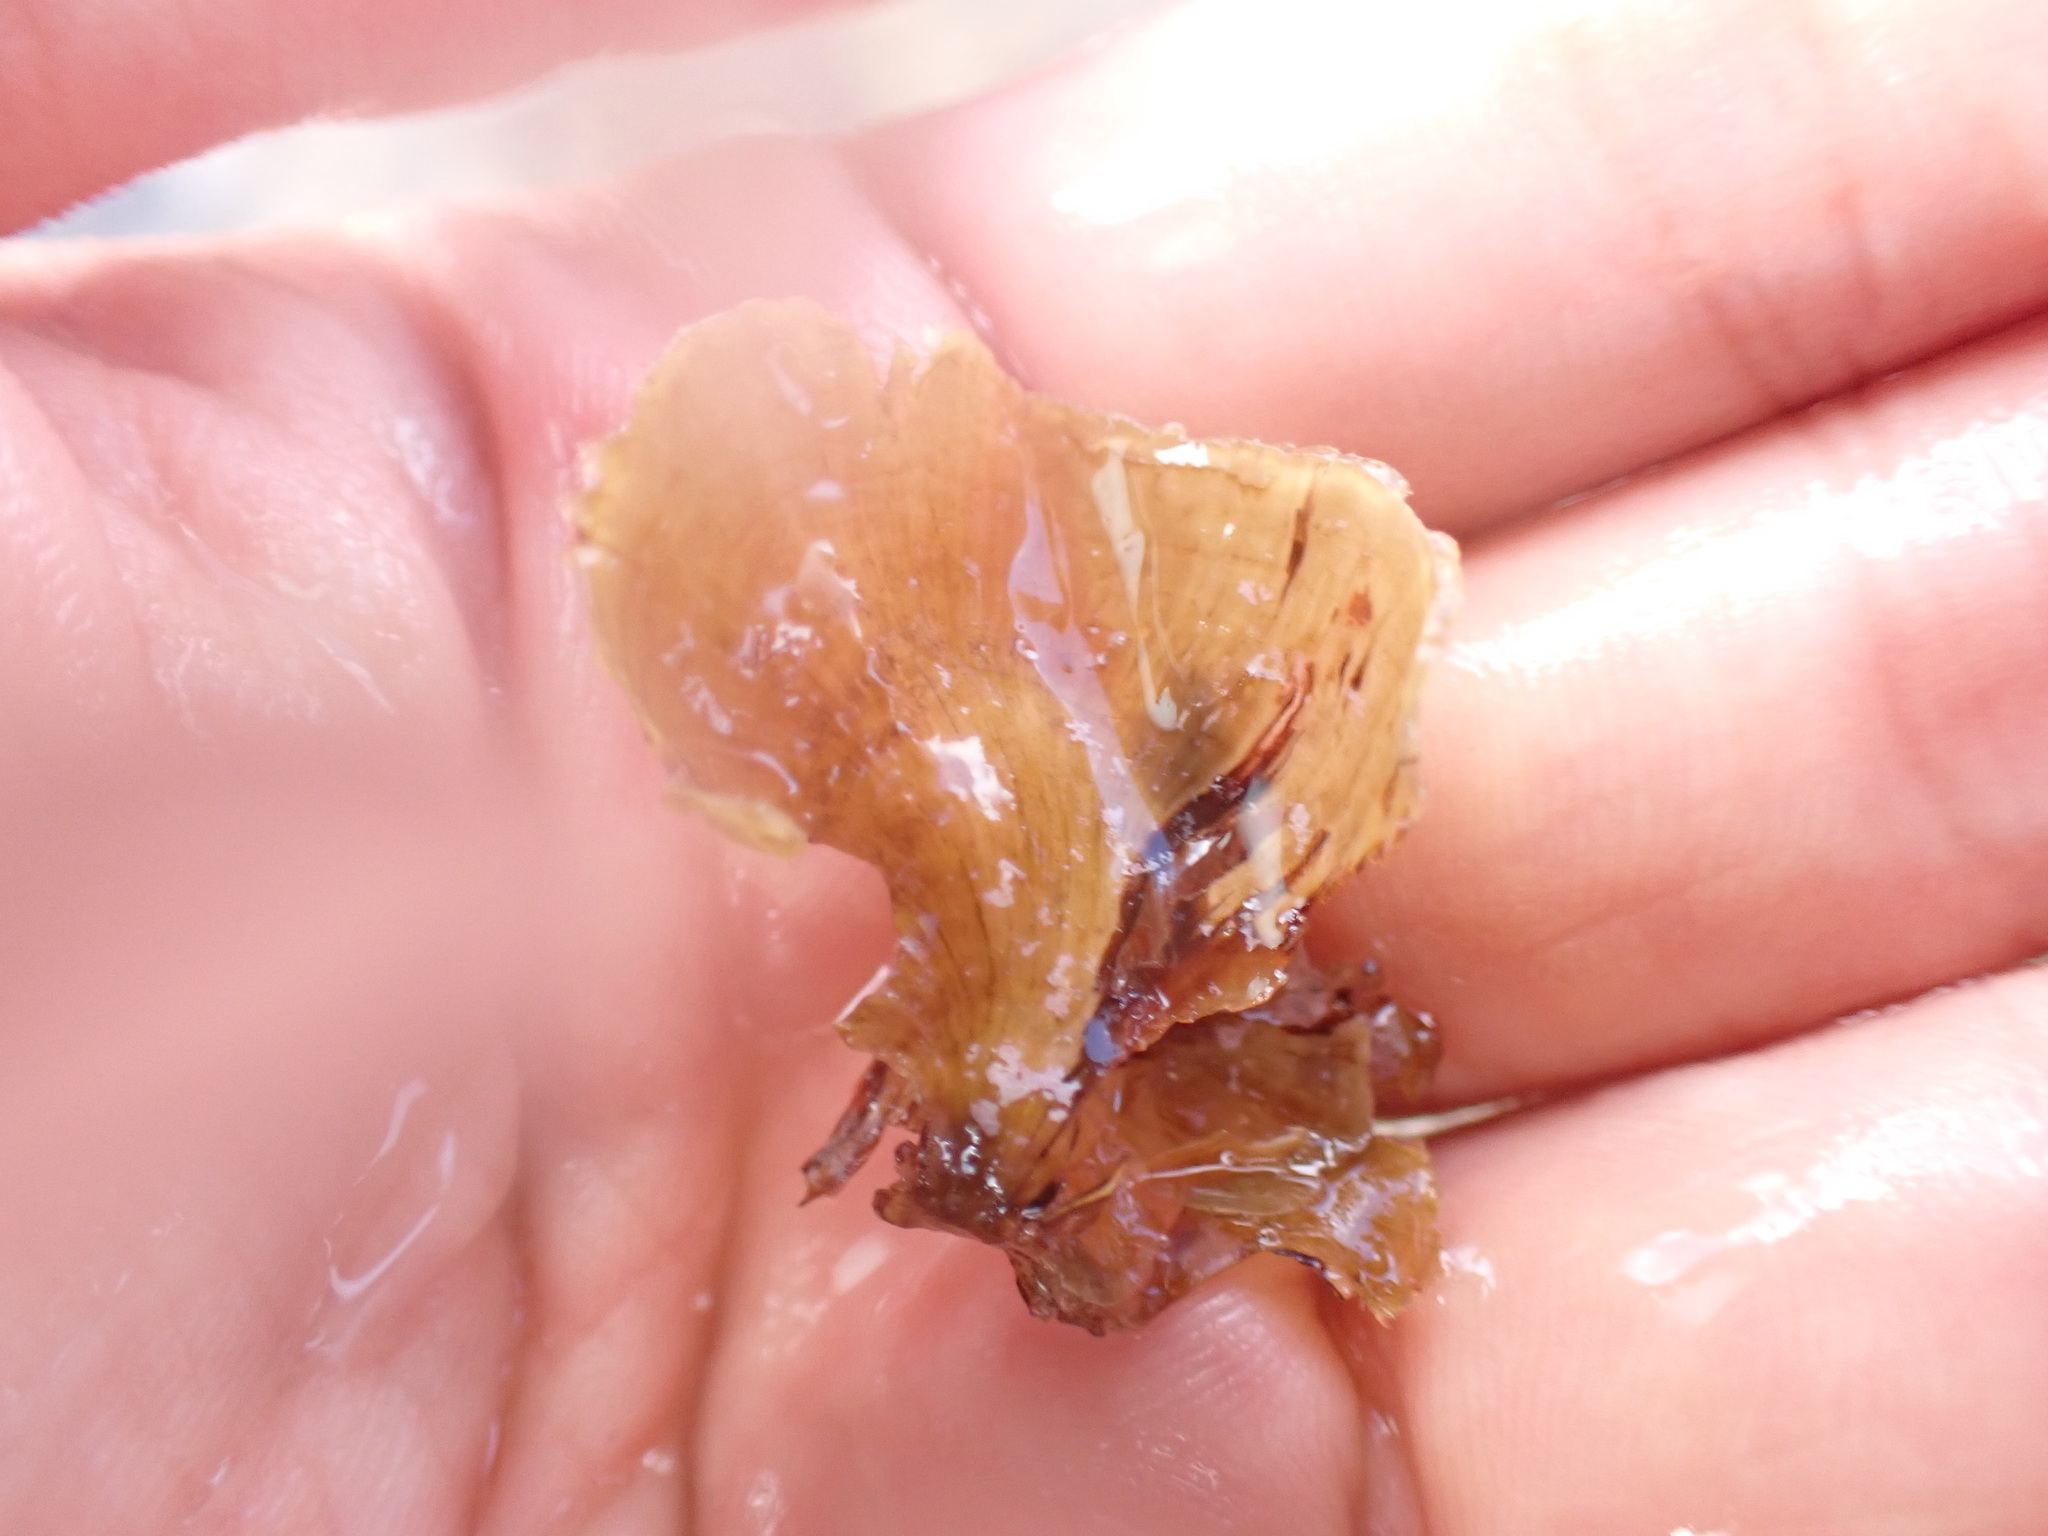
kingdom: Chromista
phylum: Ochrophyta
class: Phaeophyceae
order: Dictyotales
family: Dictyotaceae
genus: Stypopodium
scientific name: Stypopodium zonale
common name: Leafy flat-blade algae
